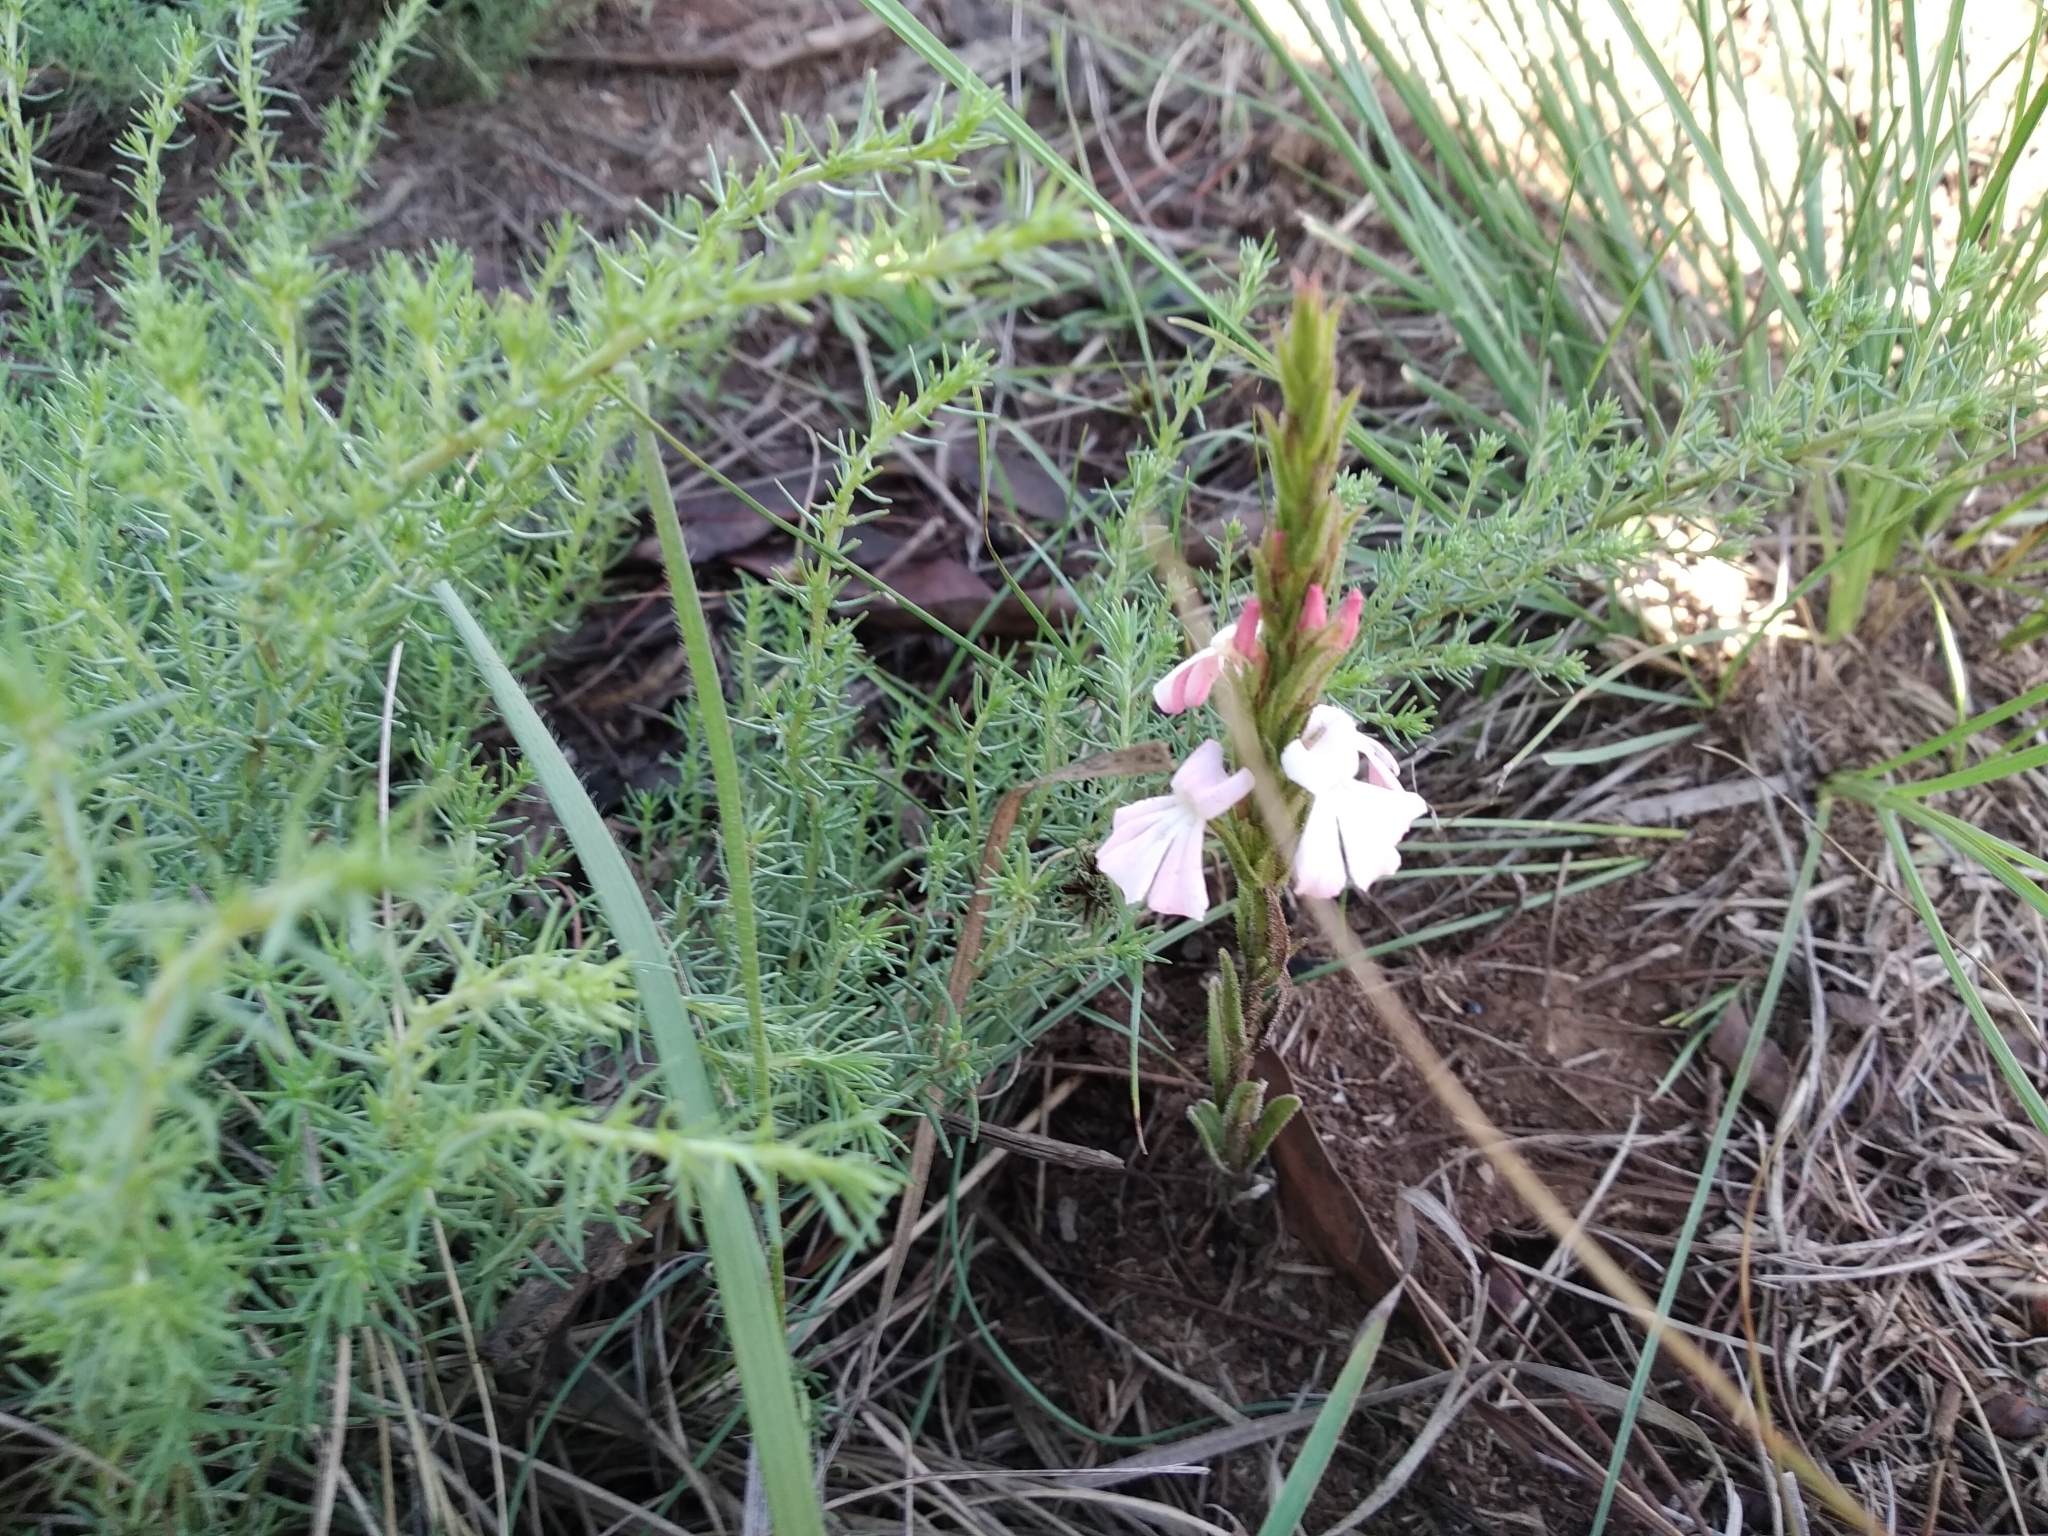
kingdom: Plantae
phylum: Tracheophyta
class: Magnoliopsida
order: Lamiales
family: Orobanchaceae
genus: Striga
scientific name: Striga elegans
